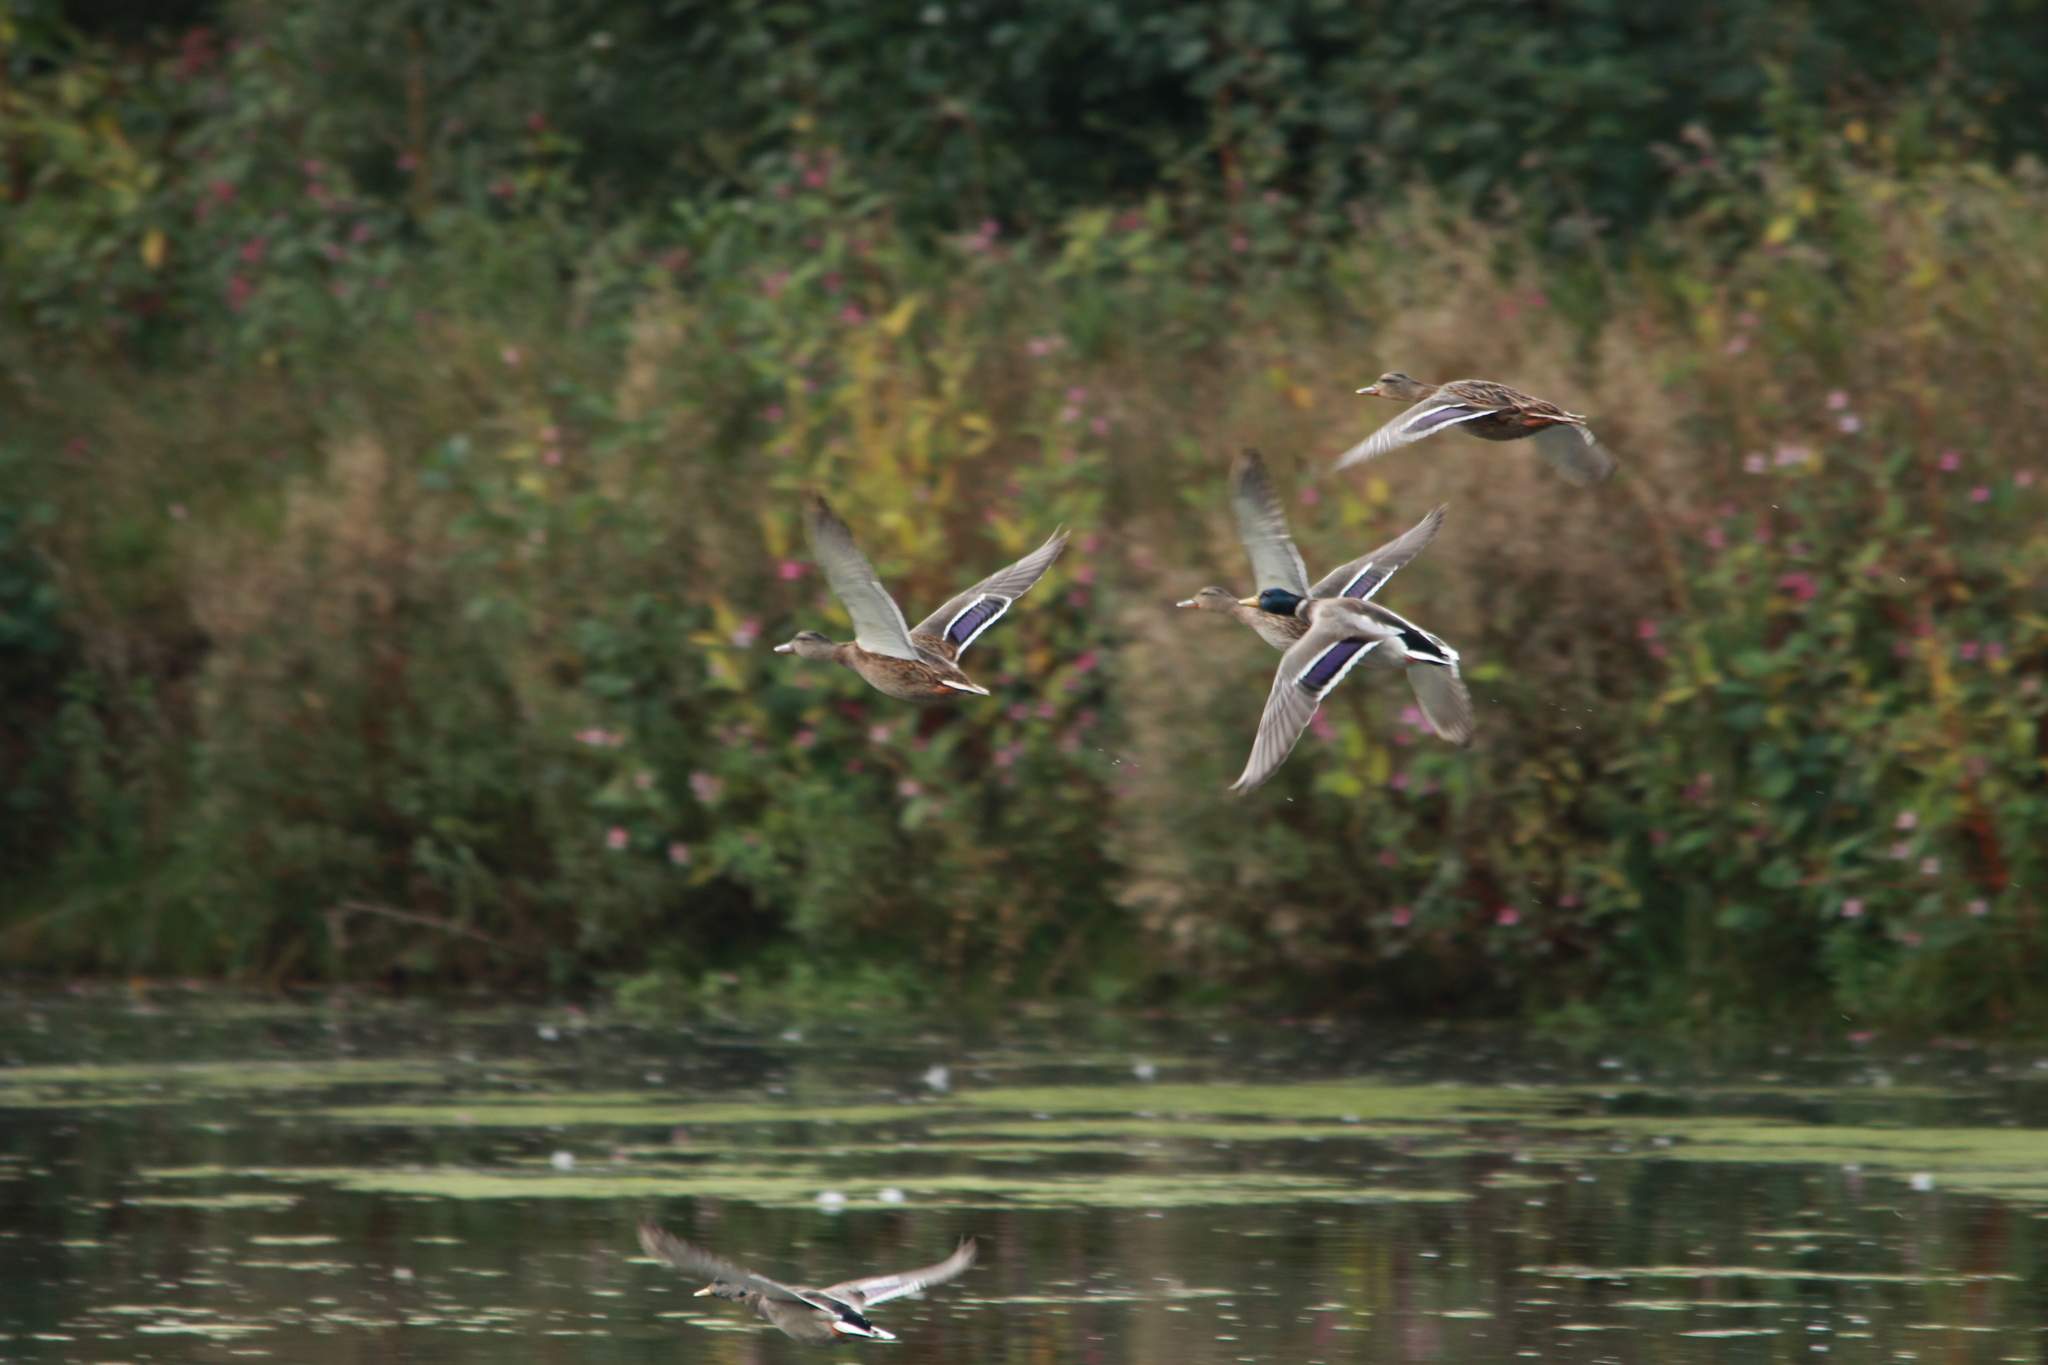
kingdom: Animalia
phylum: Chordata
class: Aves
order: Anseriformes
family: Anatidae
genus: Anas
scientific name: Anas platyrhynchos
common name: Mallard
